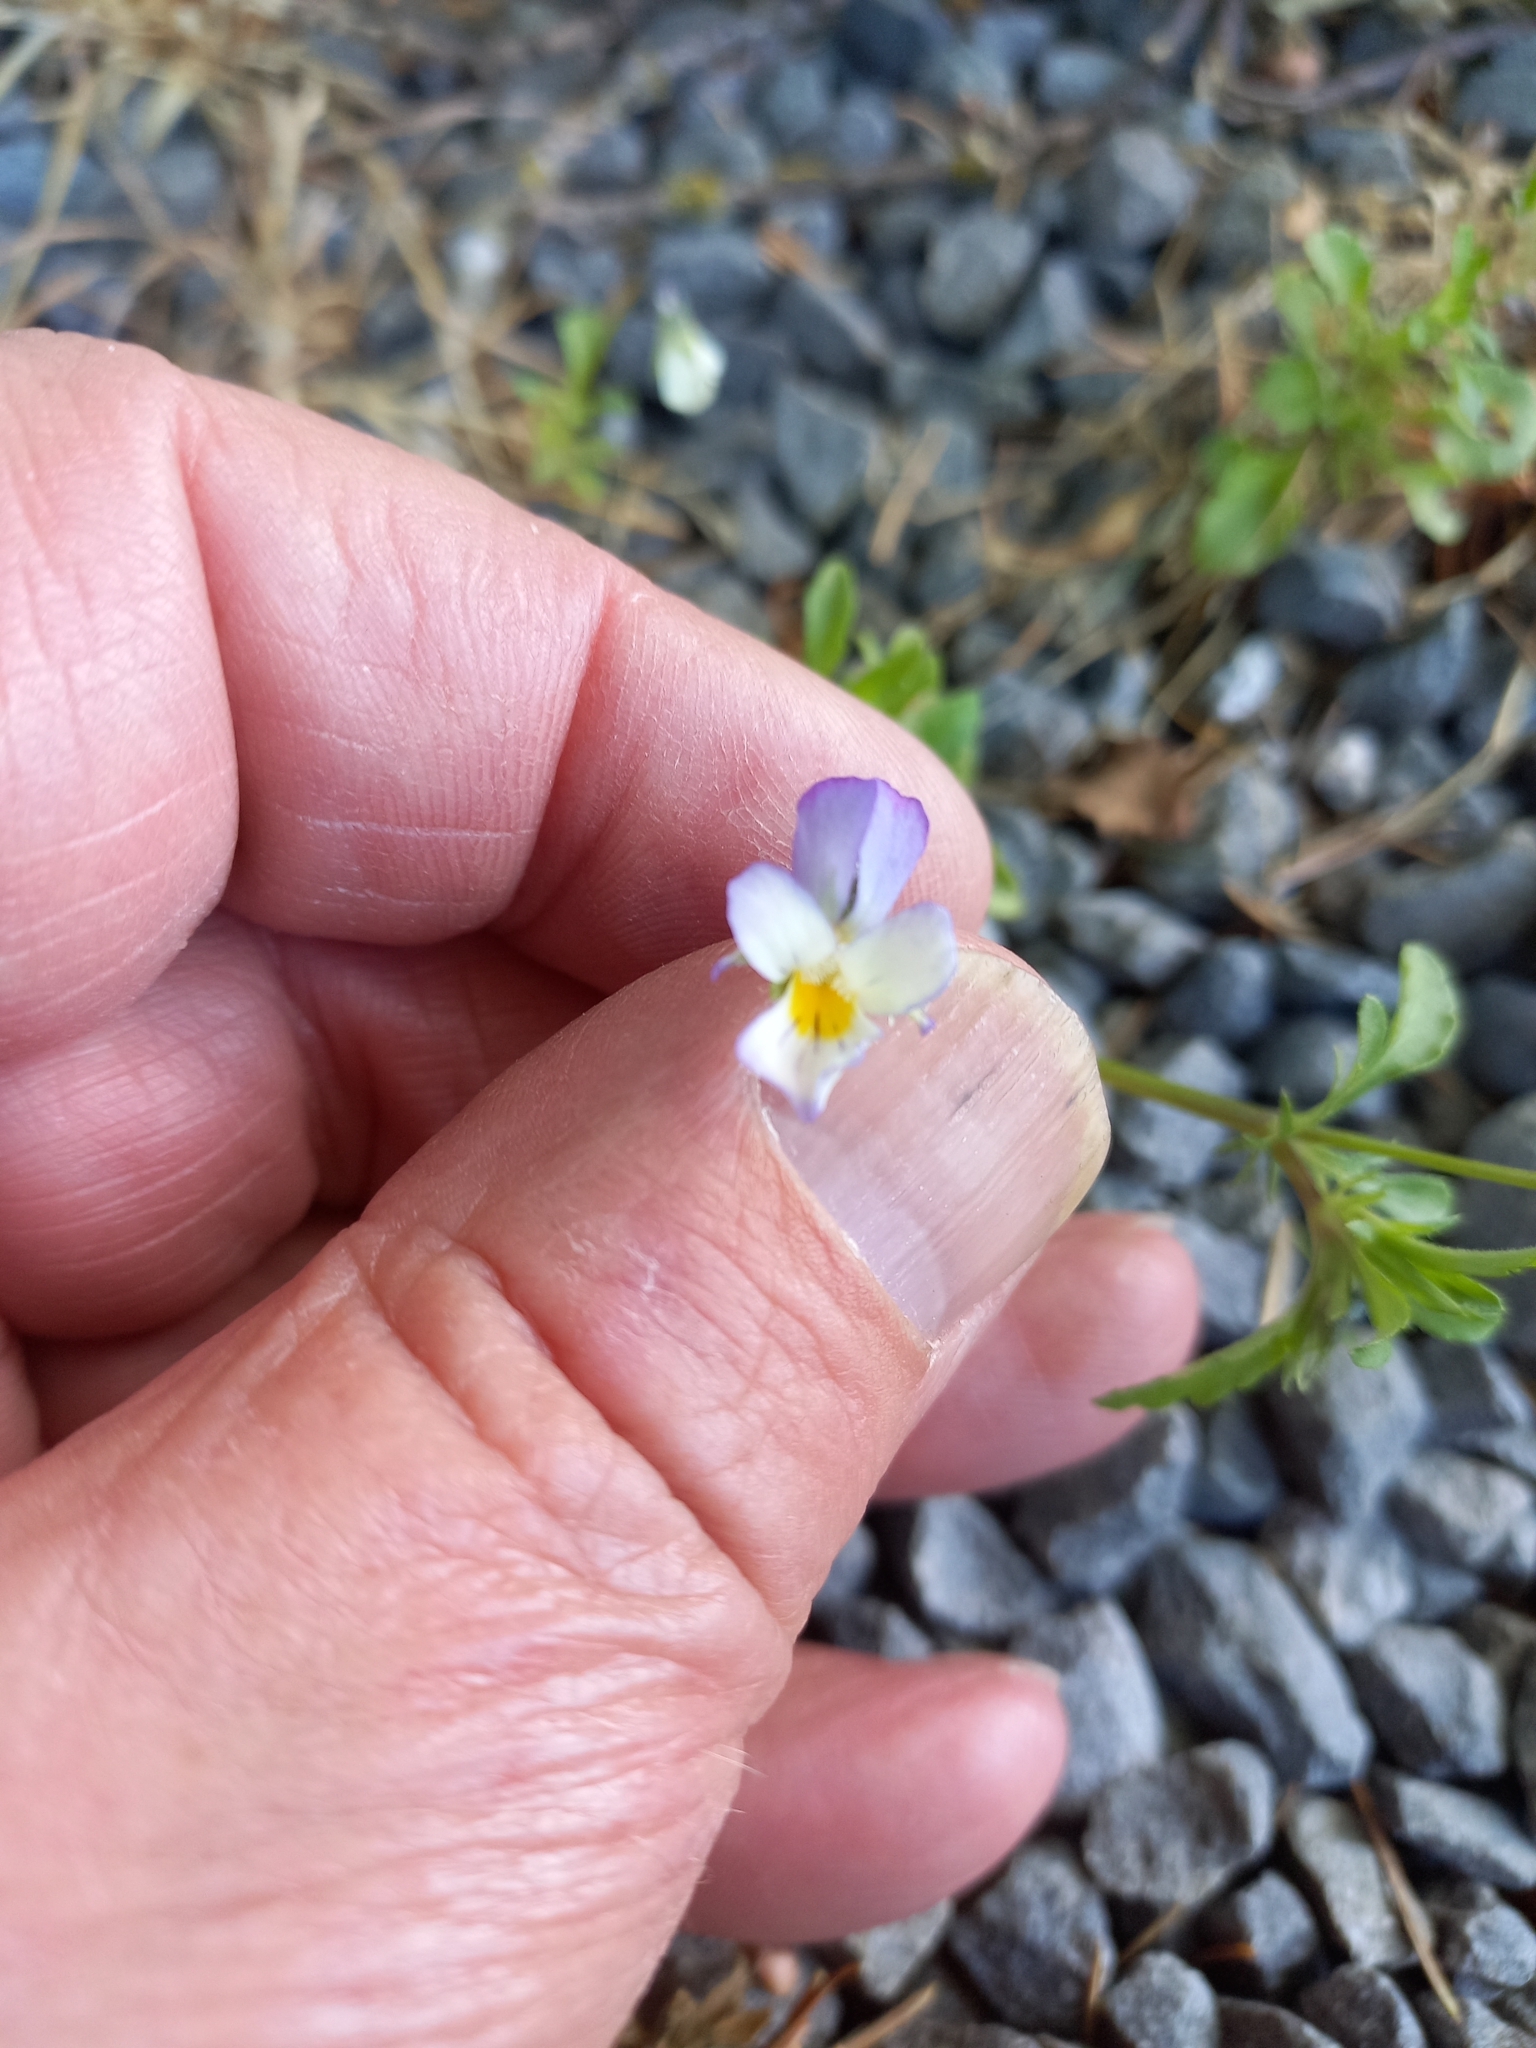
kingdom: Plantae
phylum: Tracheophyta
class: Magnoliopsida
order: Malpighiales
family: Violaceae
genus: Viola
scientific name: Viola arvensis
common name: Field pansy
